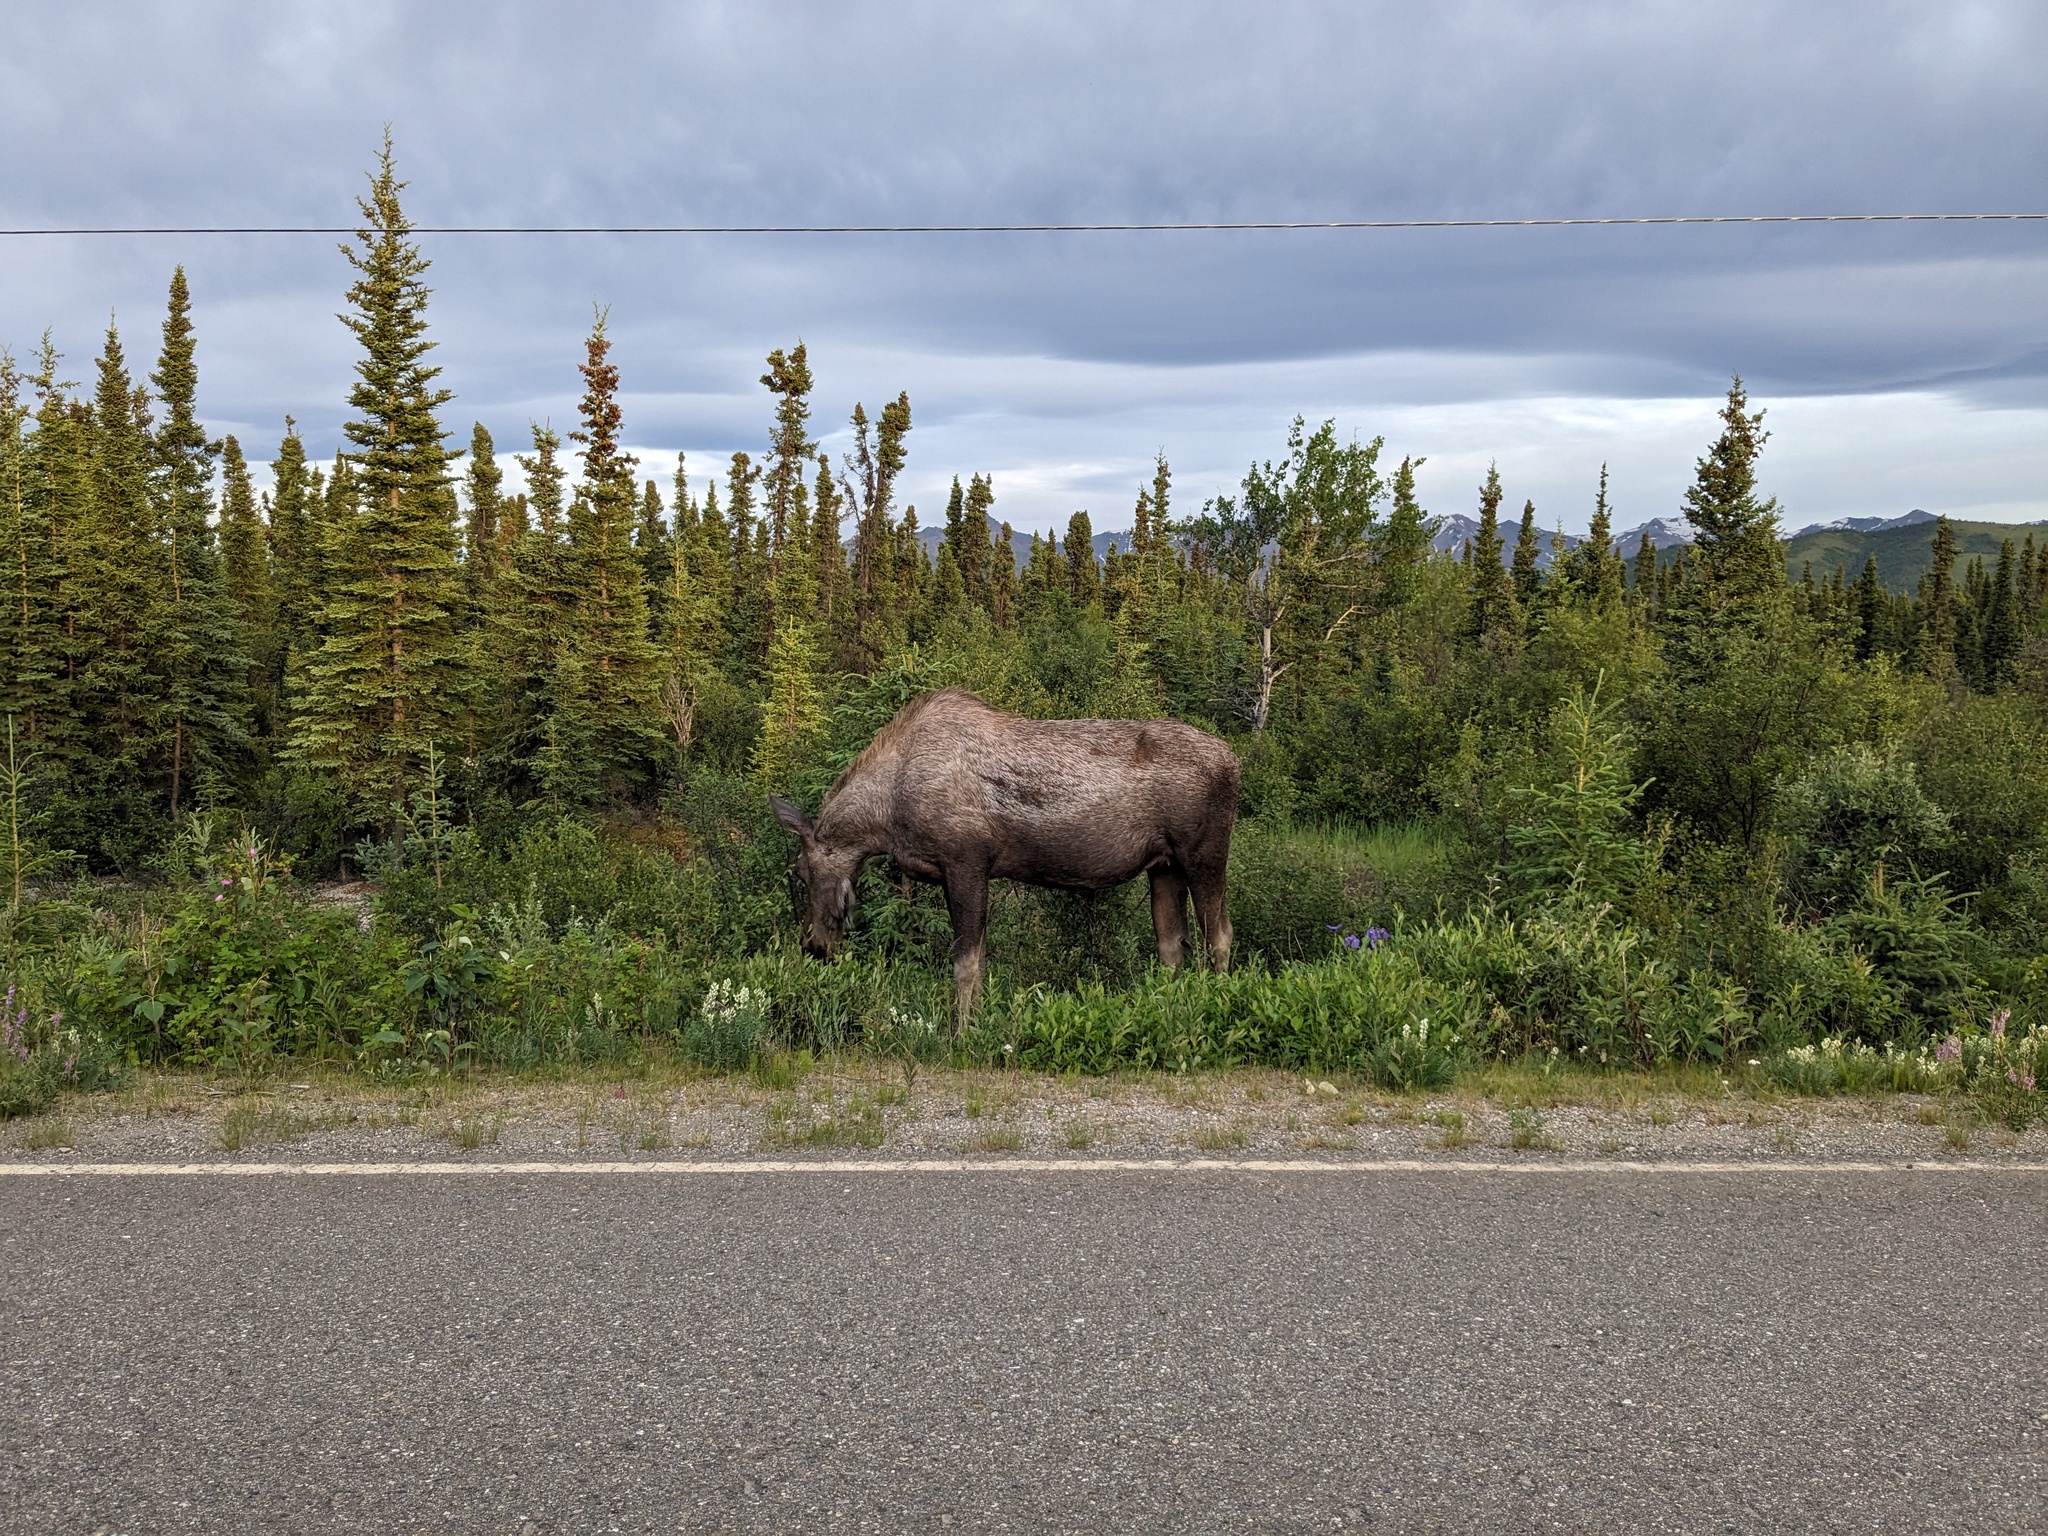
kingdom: Animalia
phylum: Chordata
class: Mammalia
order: Artiodactyla
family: Cervidae
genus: Alces
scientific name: Alces alces
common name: Moose
